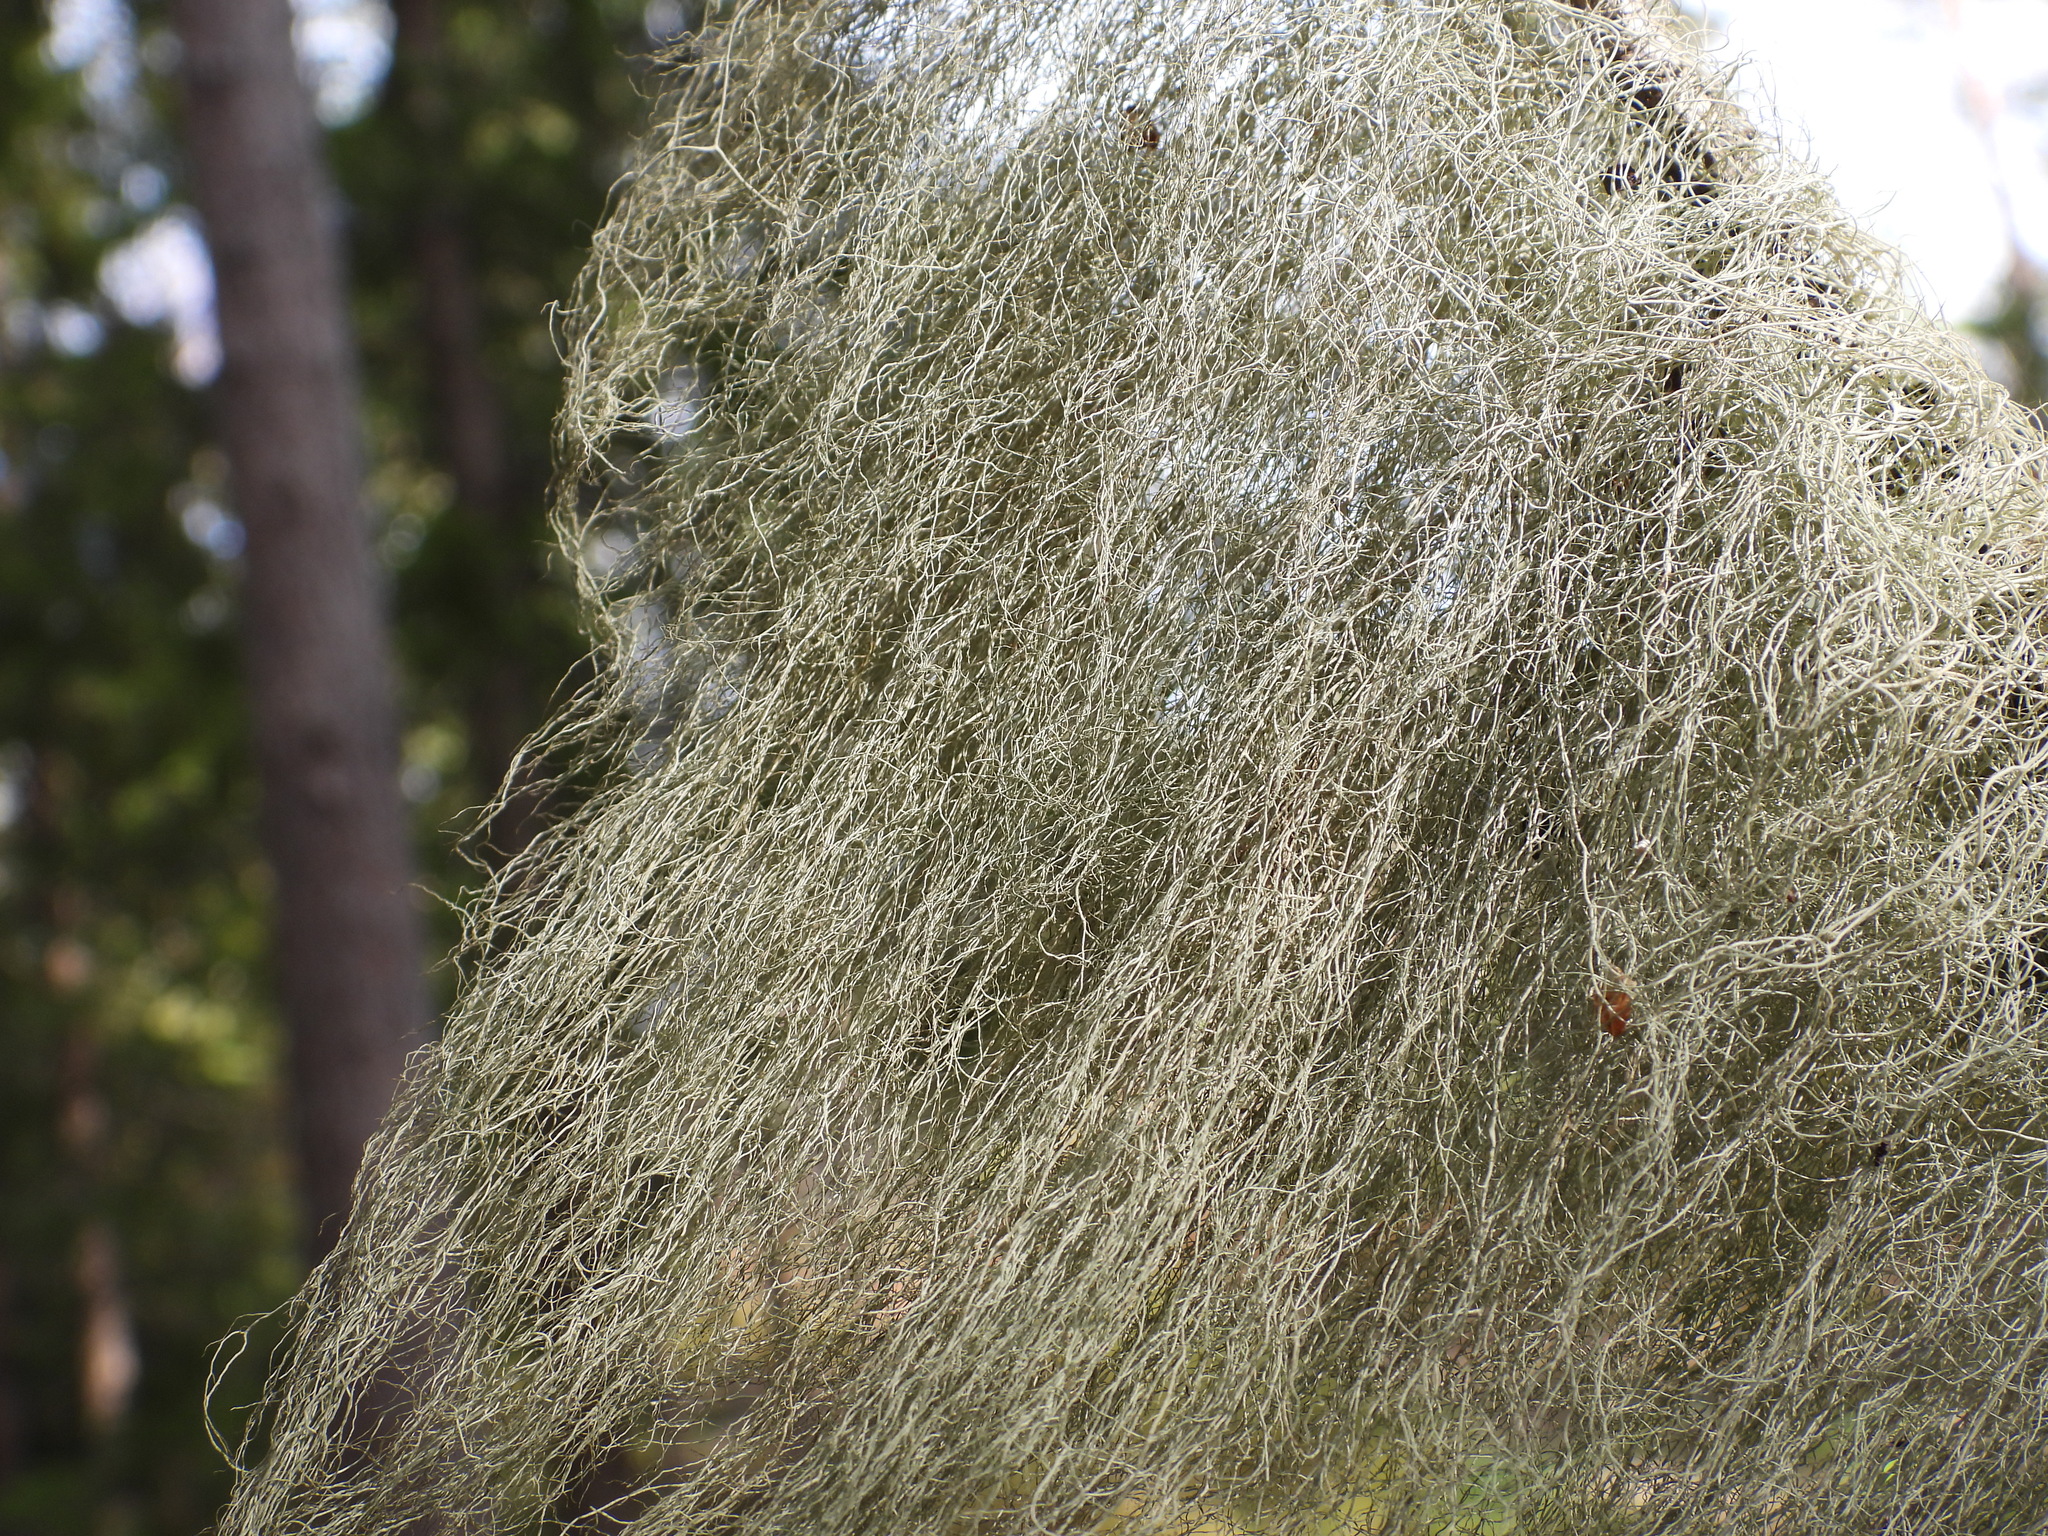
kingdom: Fungi
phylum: Ascomycota
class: Lecanoromycetes
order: Lecanorales
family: Parmeliaceae
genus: Bryoria
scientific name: Bryoria fuscescens
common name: Pale-footed horsehair lichen
